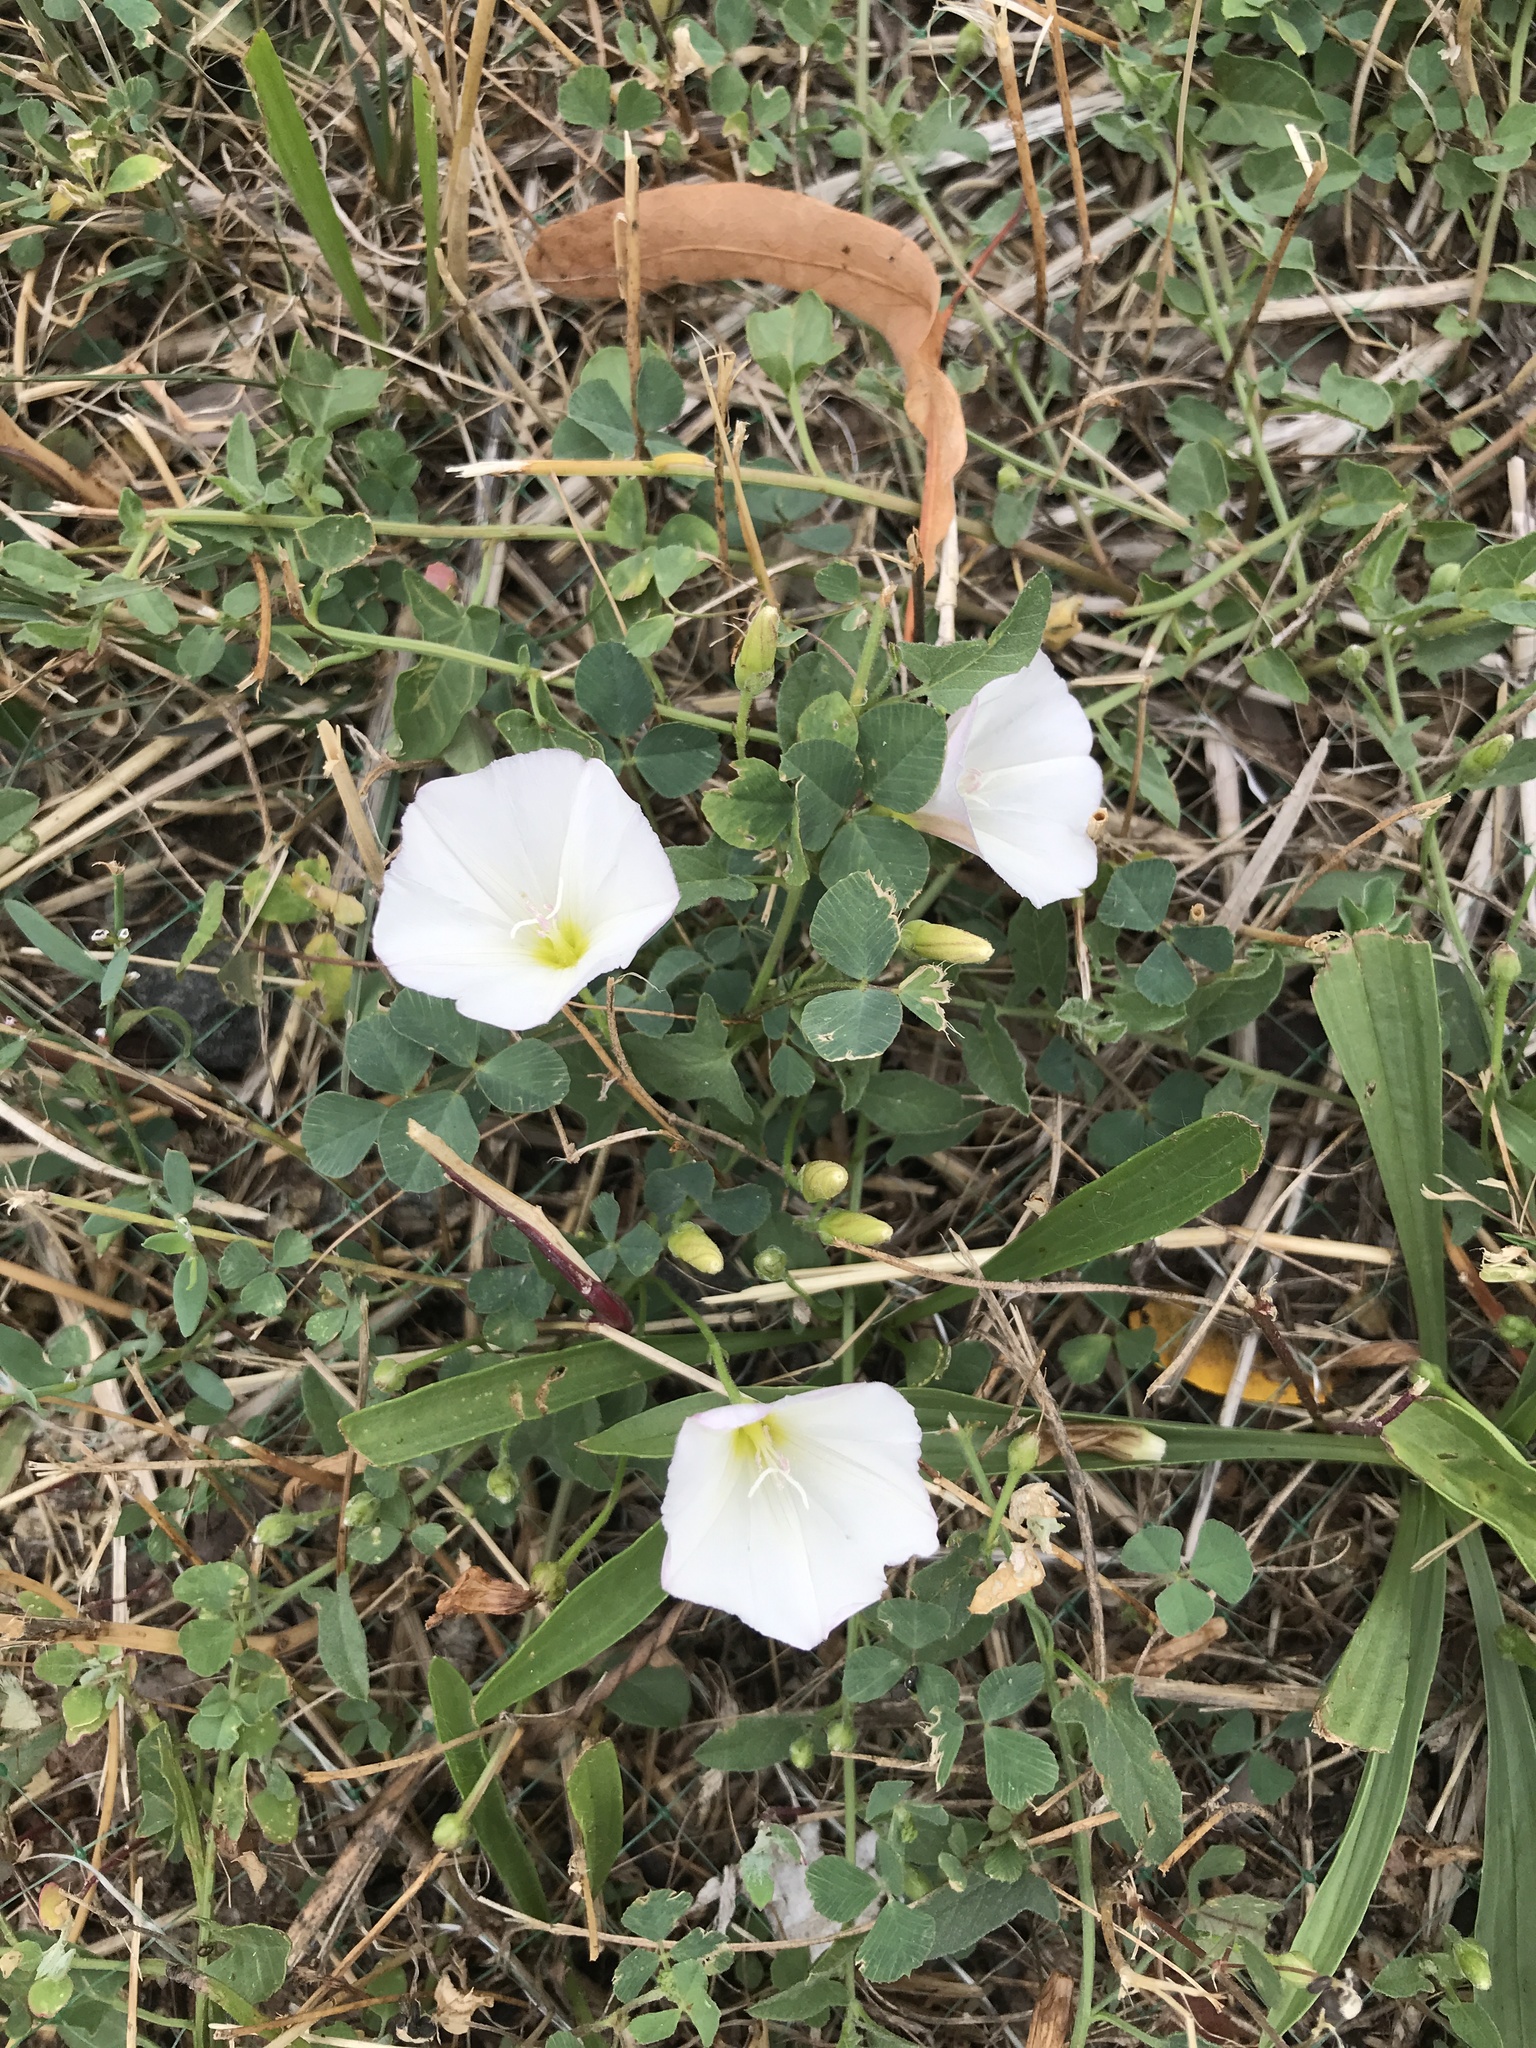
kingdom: Plantae
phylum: Tracheophyta
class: Magnoliopsida
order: Solanales
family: Convolvulaceae
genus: Convolvulus
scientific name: Convolvulus arvensis
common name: Field bindweed
